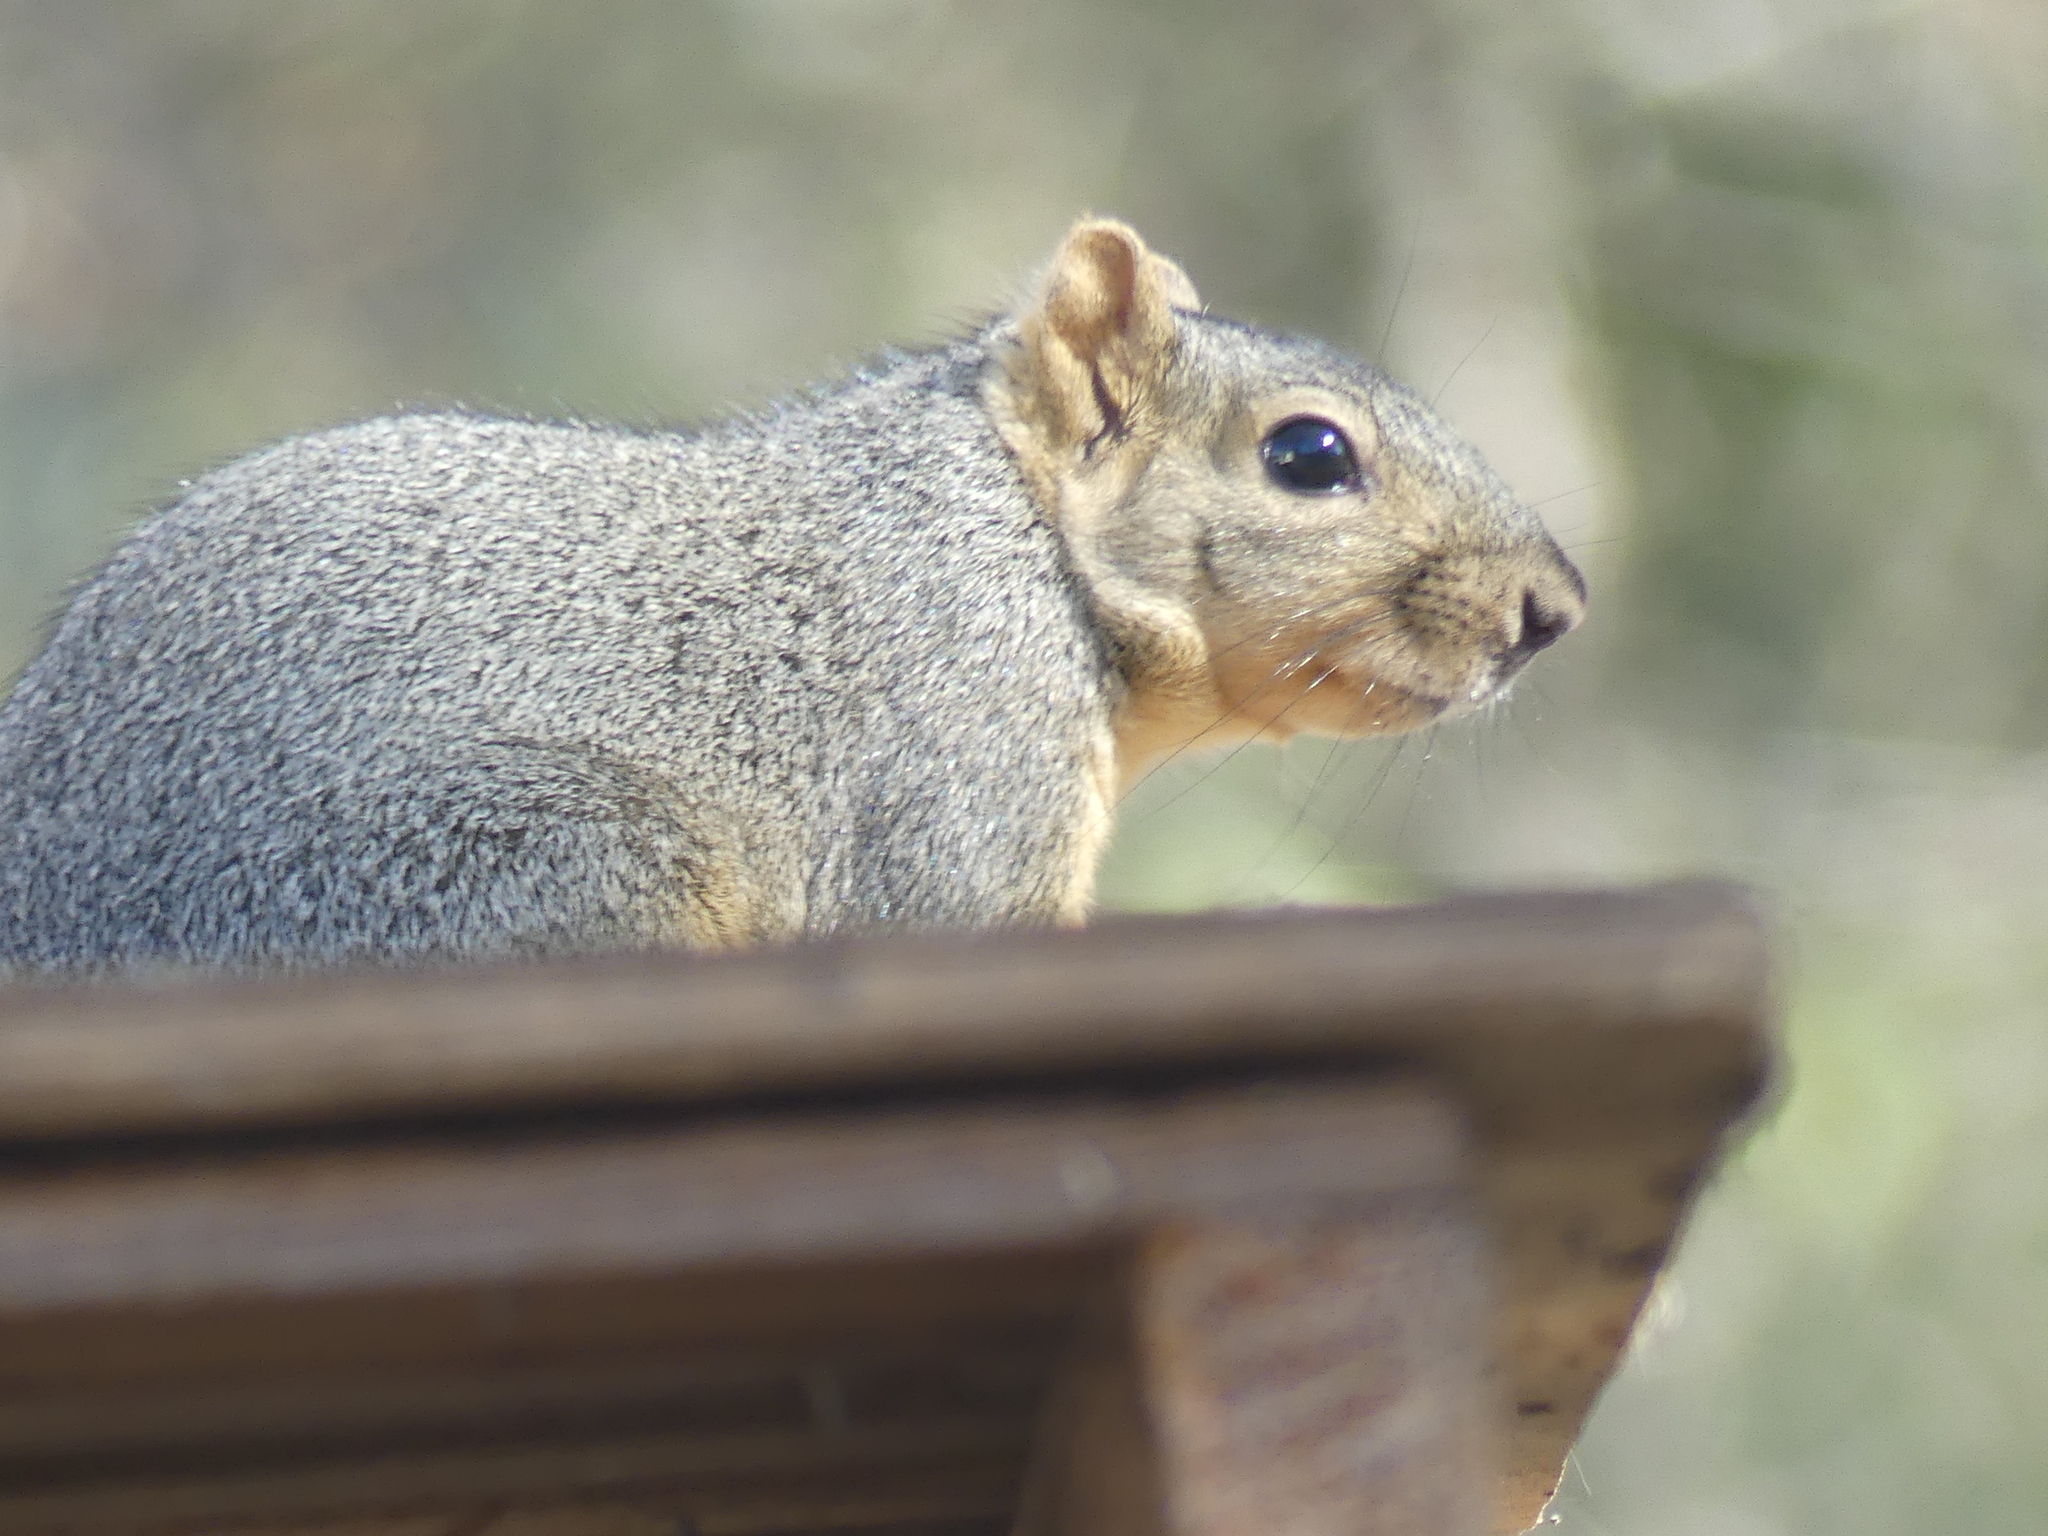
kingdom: Animalia
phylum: Chordata
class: Mammalia
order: Rodentia
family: Sciuridae
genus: Sciurus
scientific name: Sciurus niger
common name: Fox squirrel
